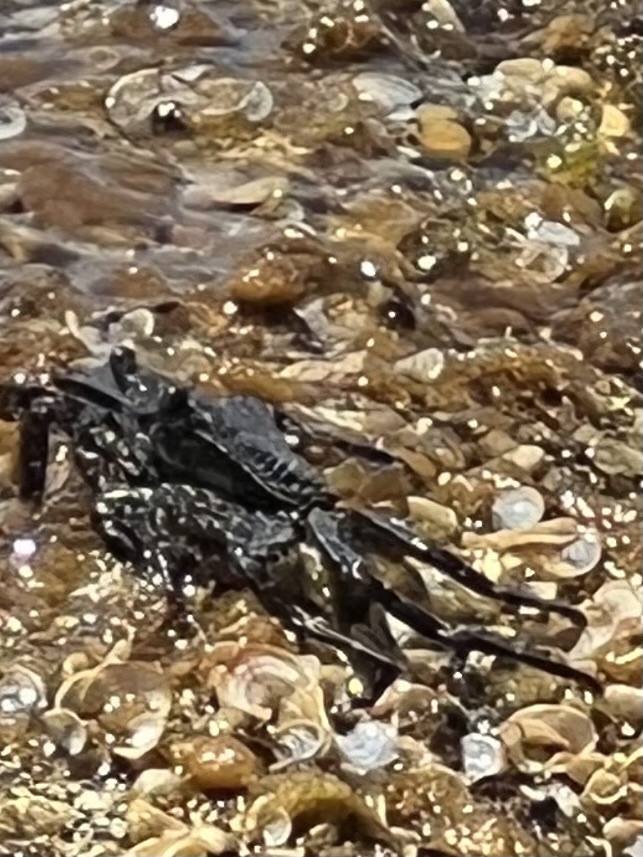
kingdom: Animalia
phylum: Arthropoda
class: Malacostraca
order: Decapoda
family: Grapsidae
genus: Grapsus
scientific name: Grapsus tenuicrustatus
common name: Natal lightfoot crab
